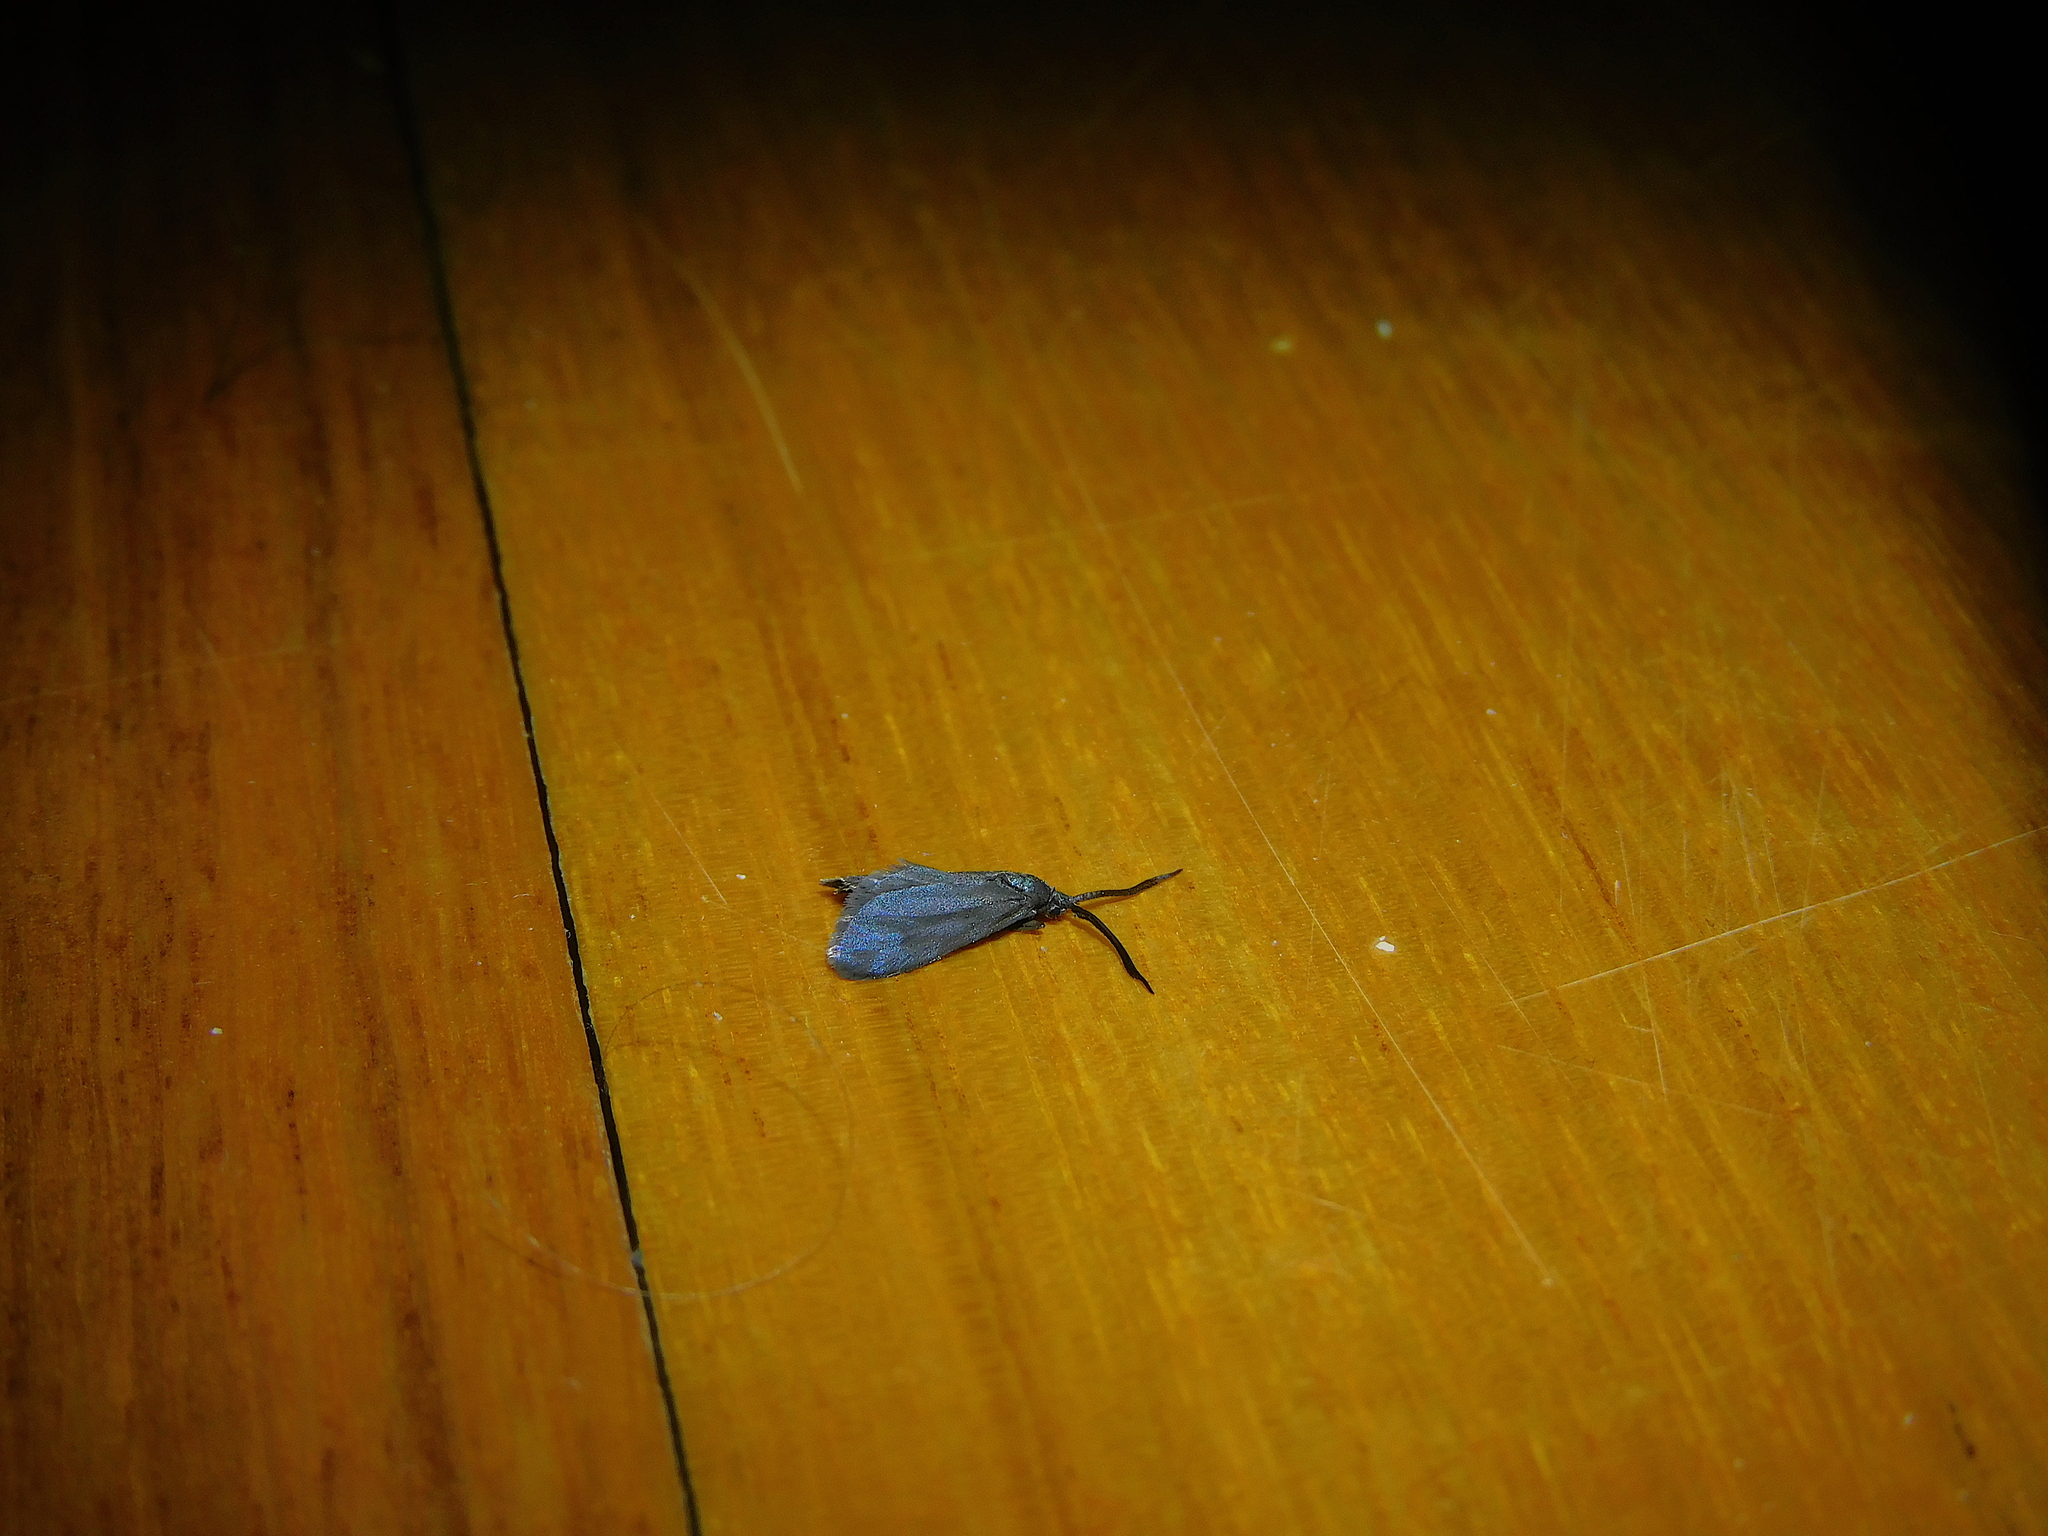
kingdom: Animalia
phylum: Arthropoda
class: Insecta
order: Lepidoptera
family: Zygaenidae
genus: Myrtartona
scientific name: Myrtartona coronias
